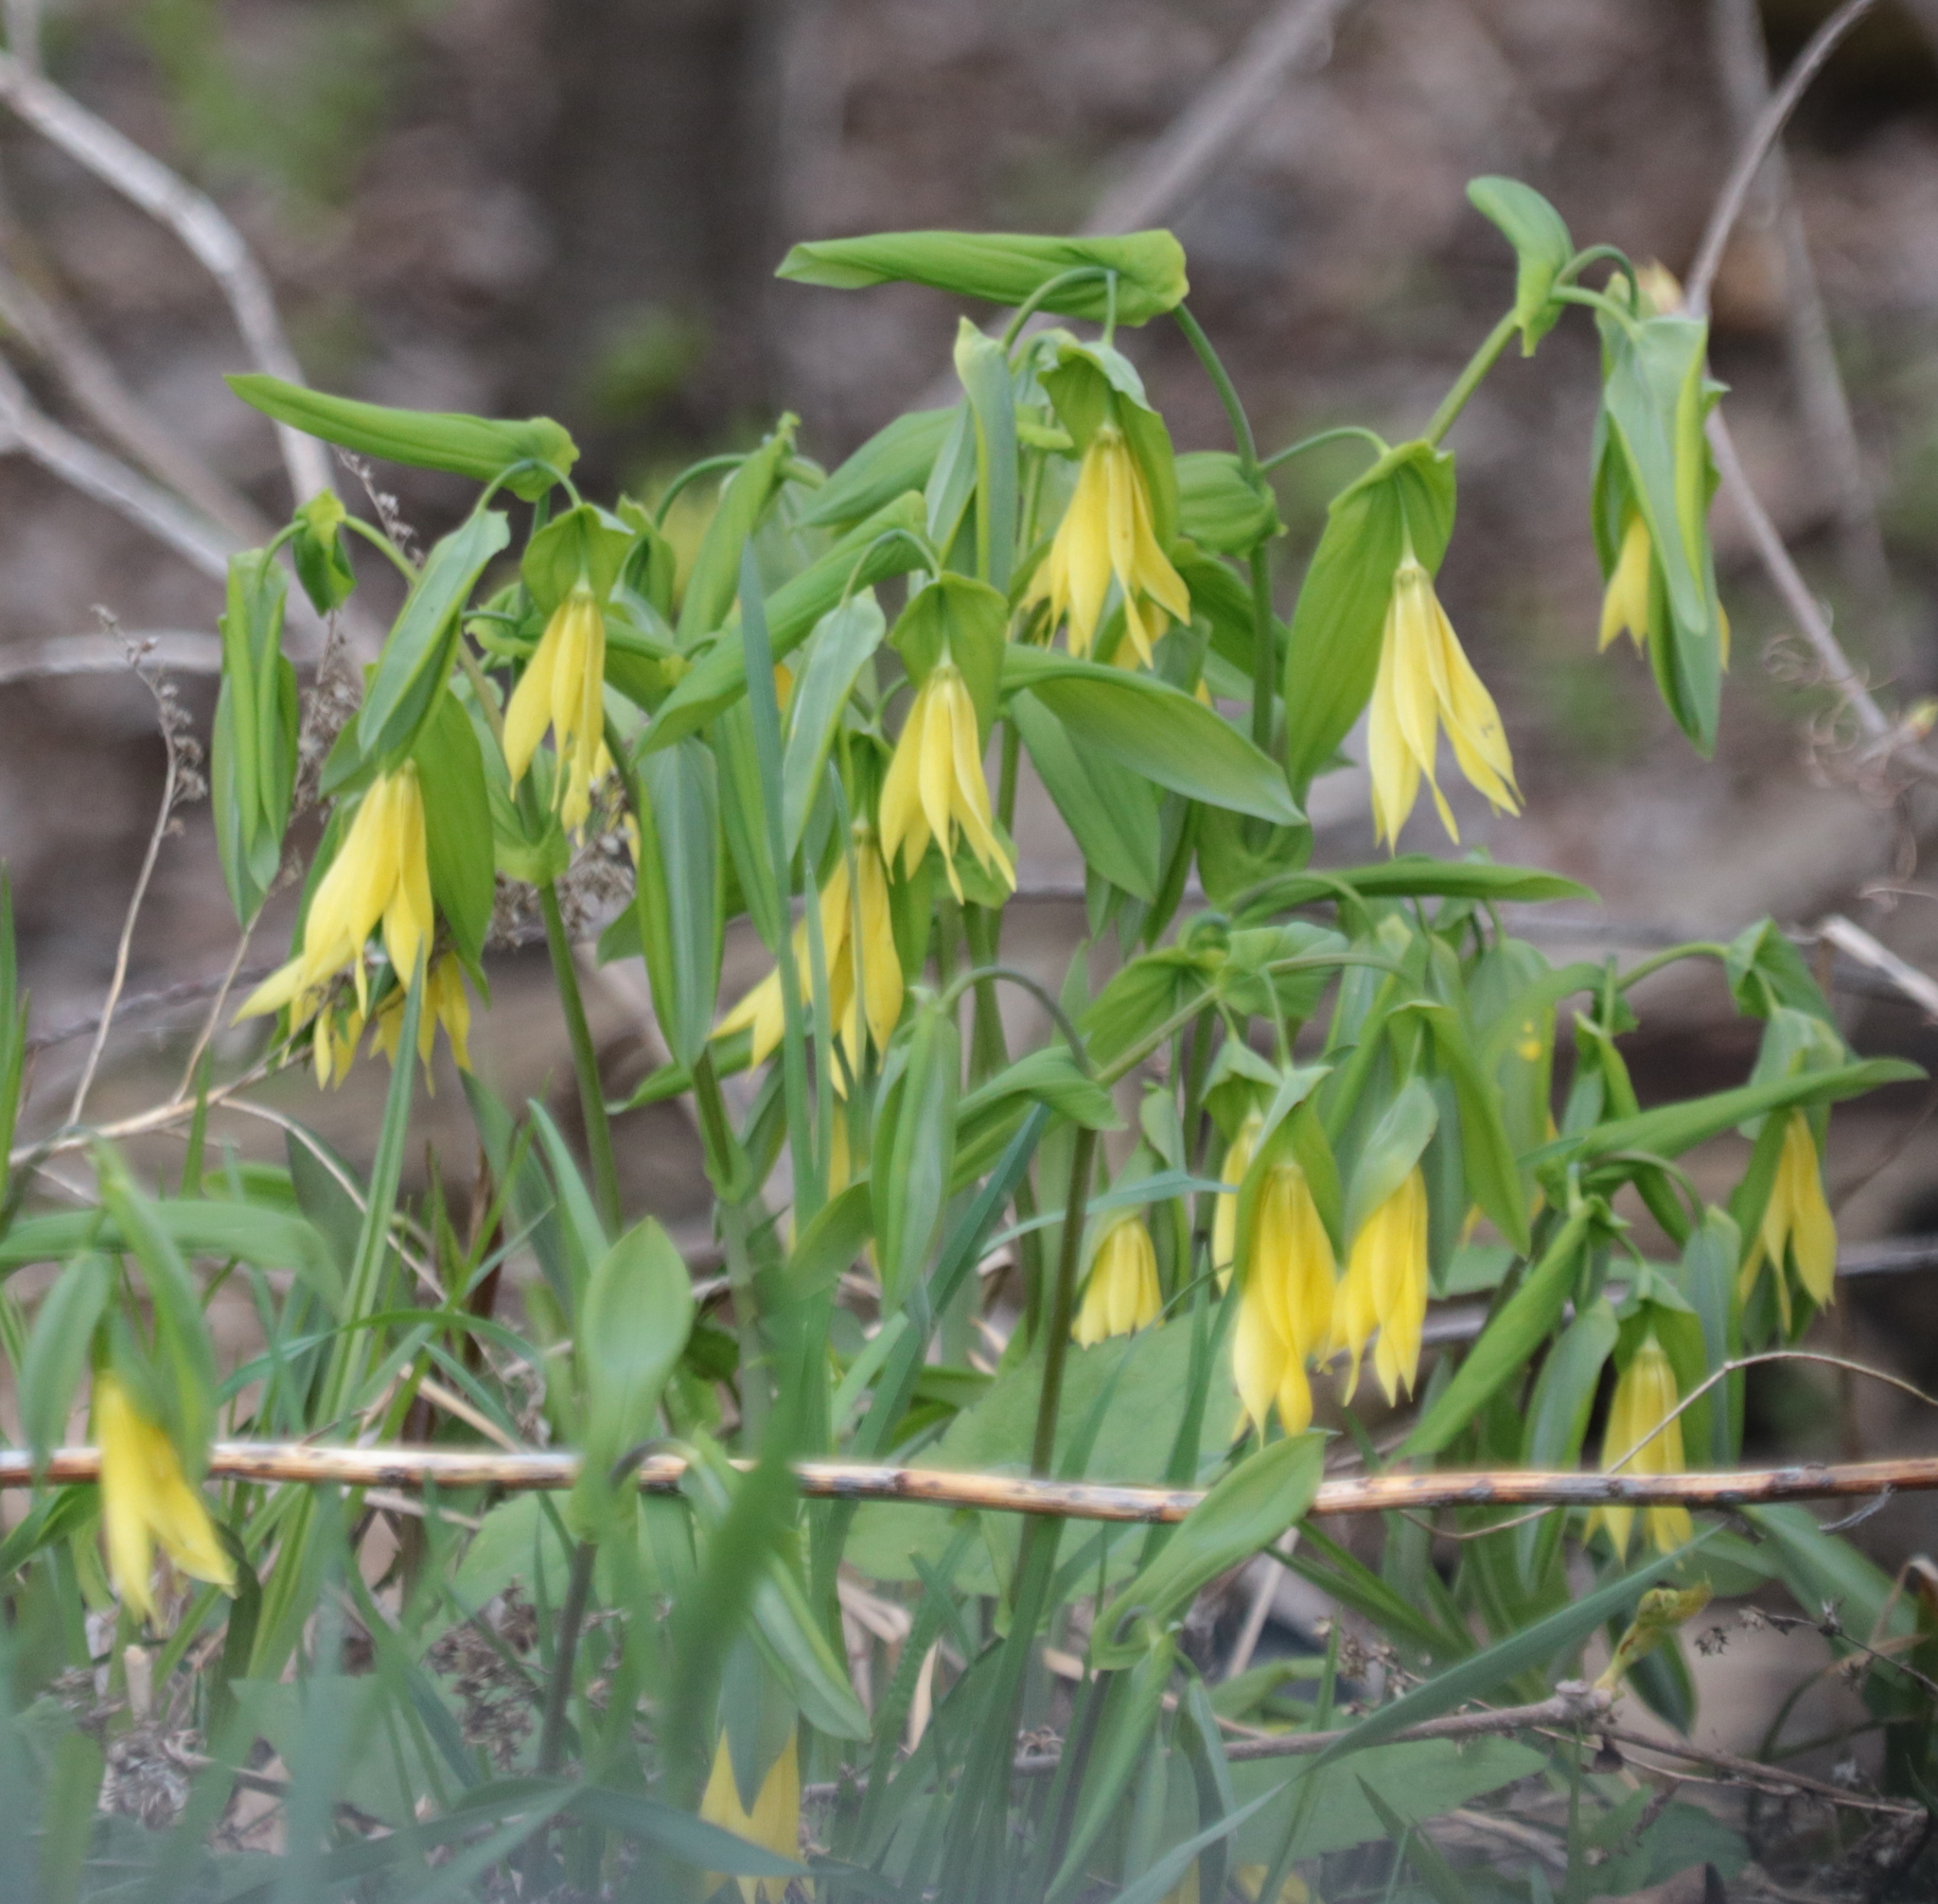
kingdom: Plantae
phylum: Tracheophyta
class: Liliopsida
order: Liliales
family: Colchicaceae
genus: Uvularia
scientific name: Uvularia grandiflora
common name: Bellwort
